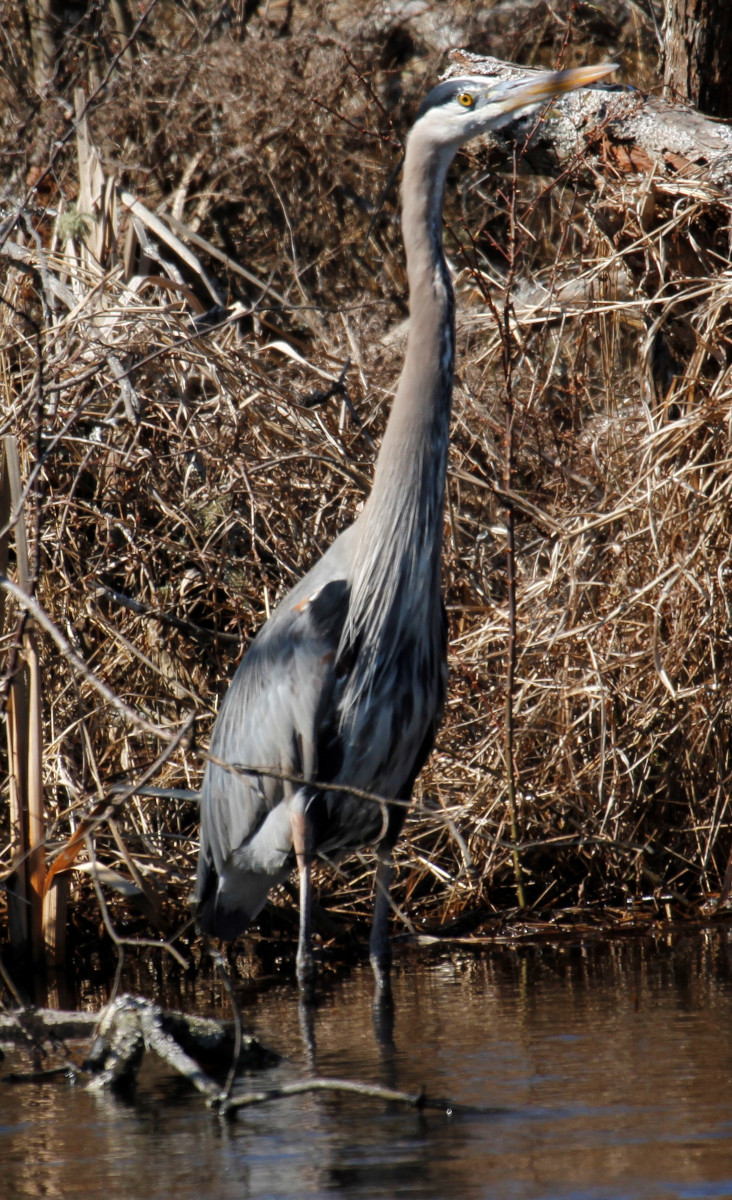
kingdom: Animalia
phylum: Chordata
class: Aves
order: Pelecaniformes
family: Ardeidae
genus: Ardea
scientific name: Ardea herodias
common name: Great blue heron
